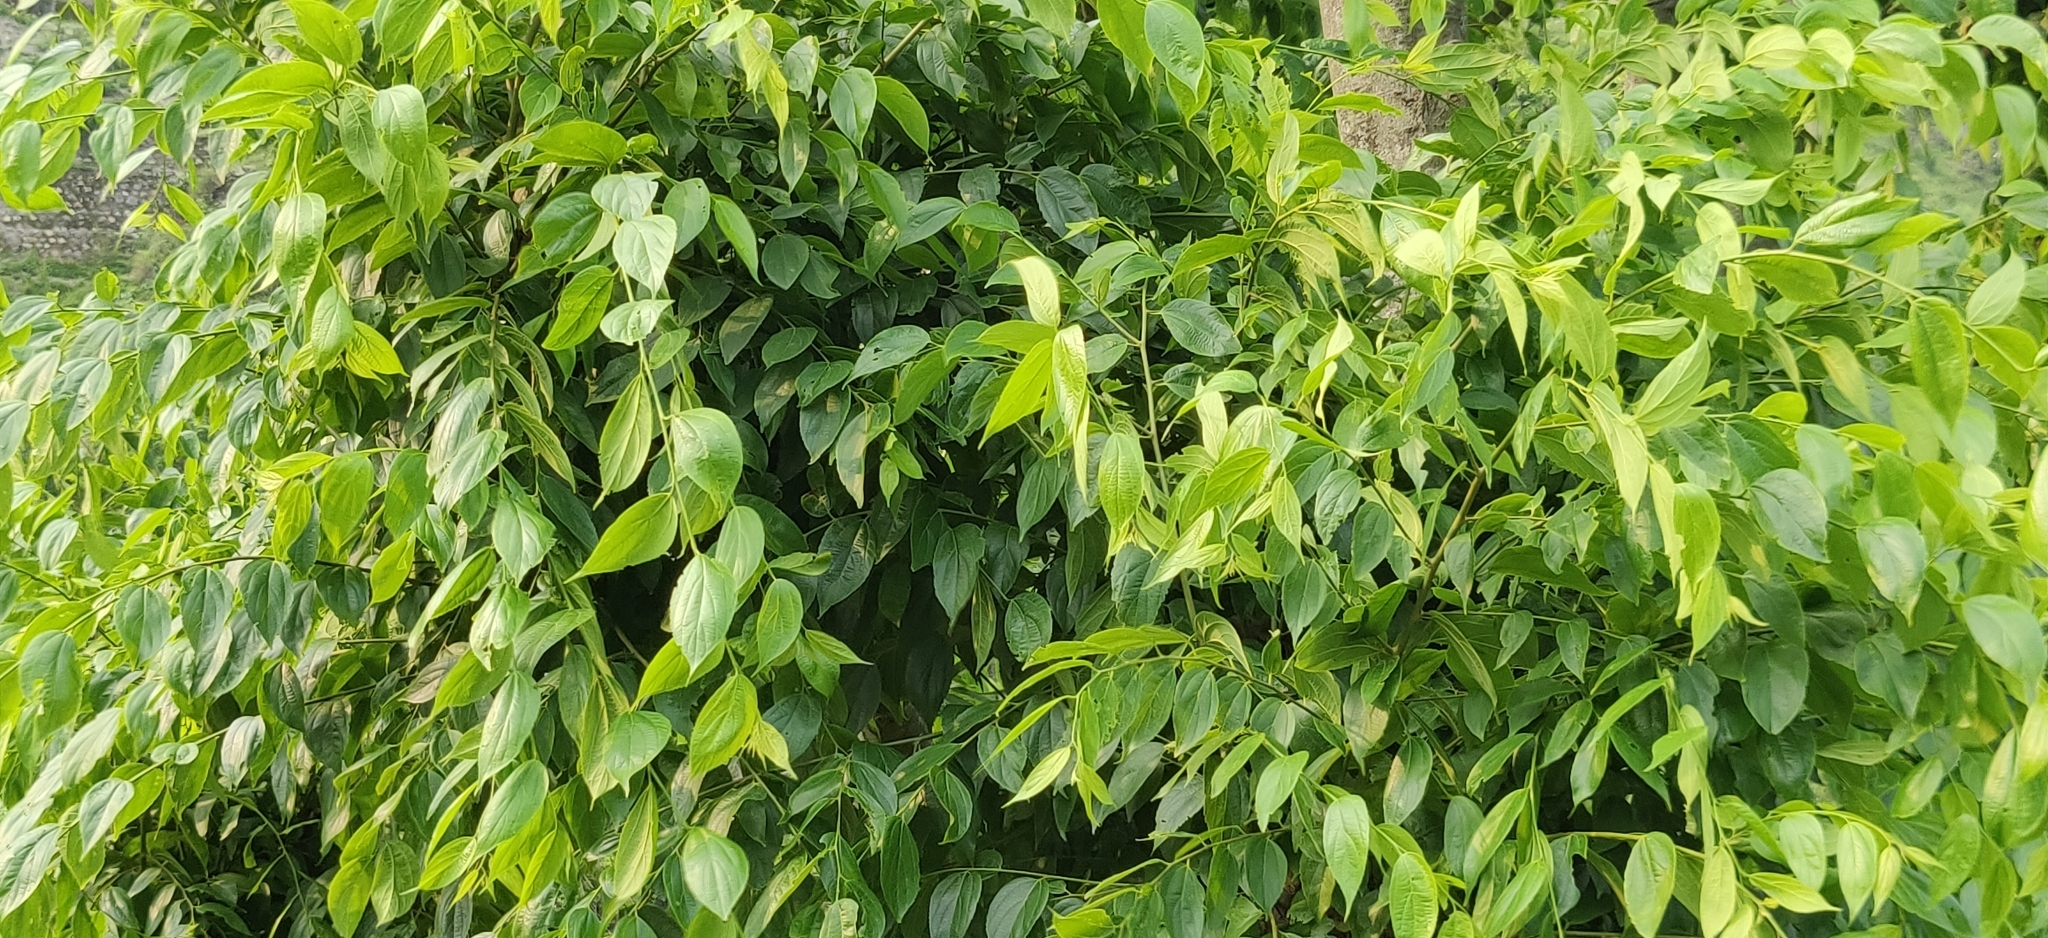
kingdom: Plantae
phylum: Tracheophyta
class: Magnoliopsida
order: Rosales
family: Cannabaceae
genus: Celtis
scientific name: Celtis tetrandra
